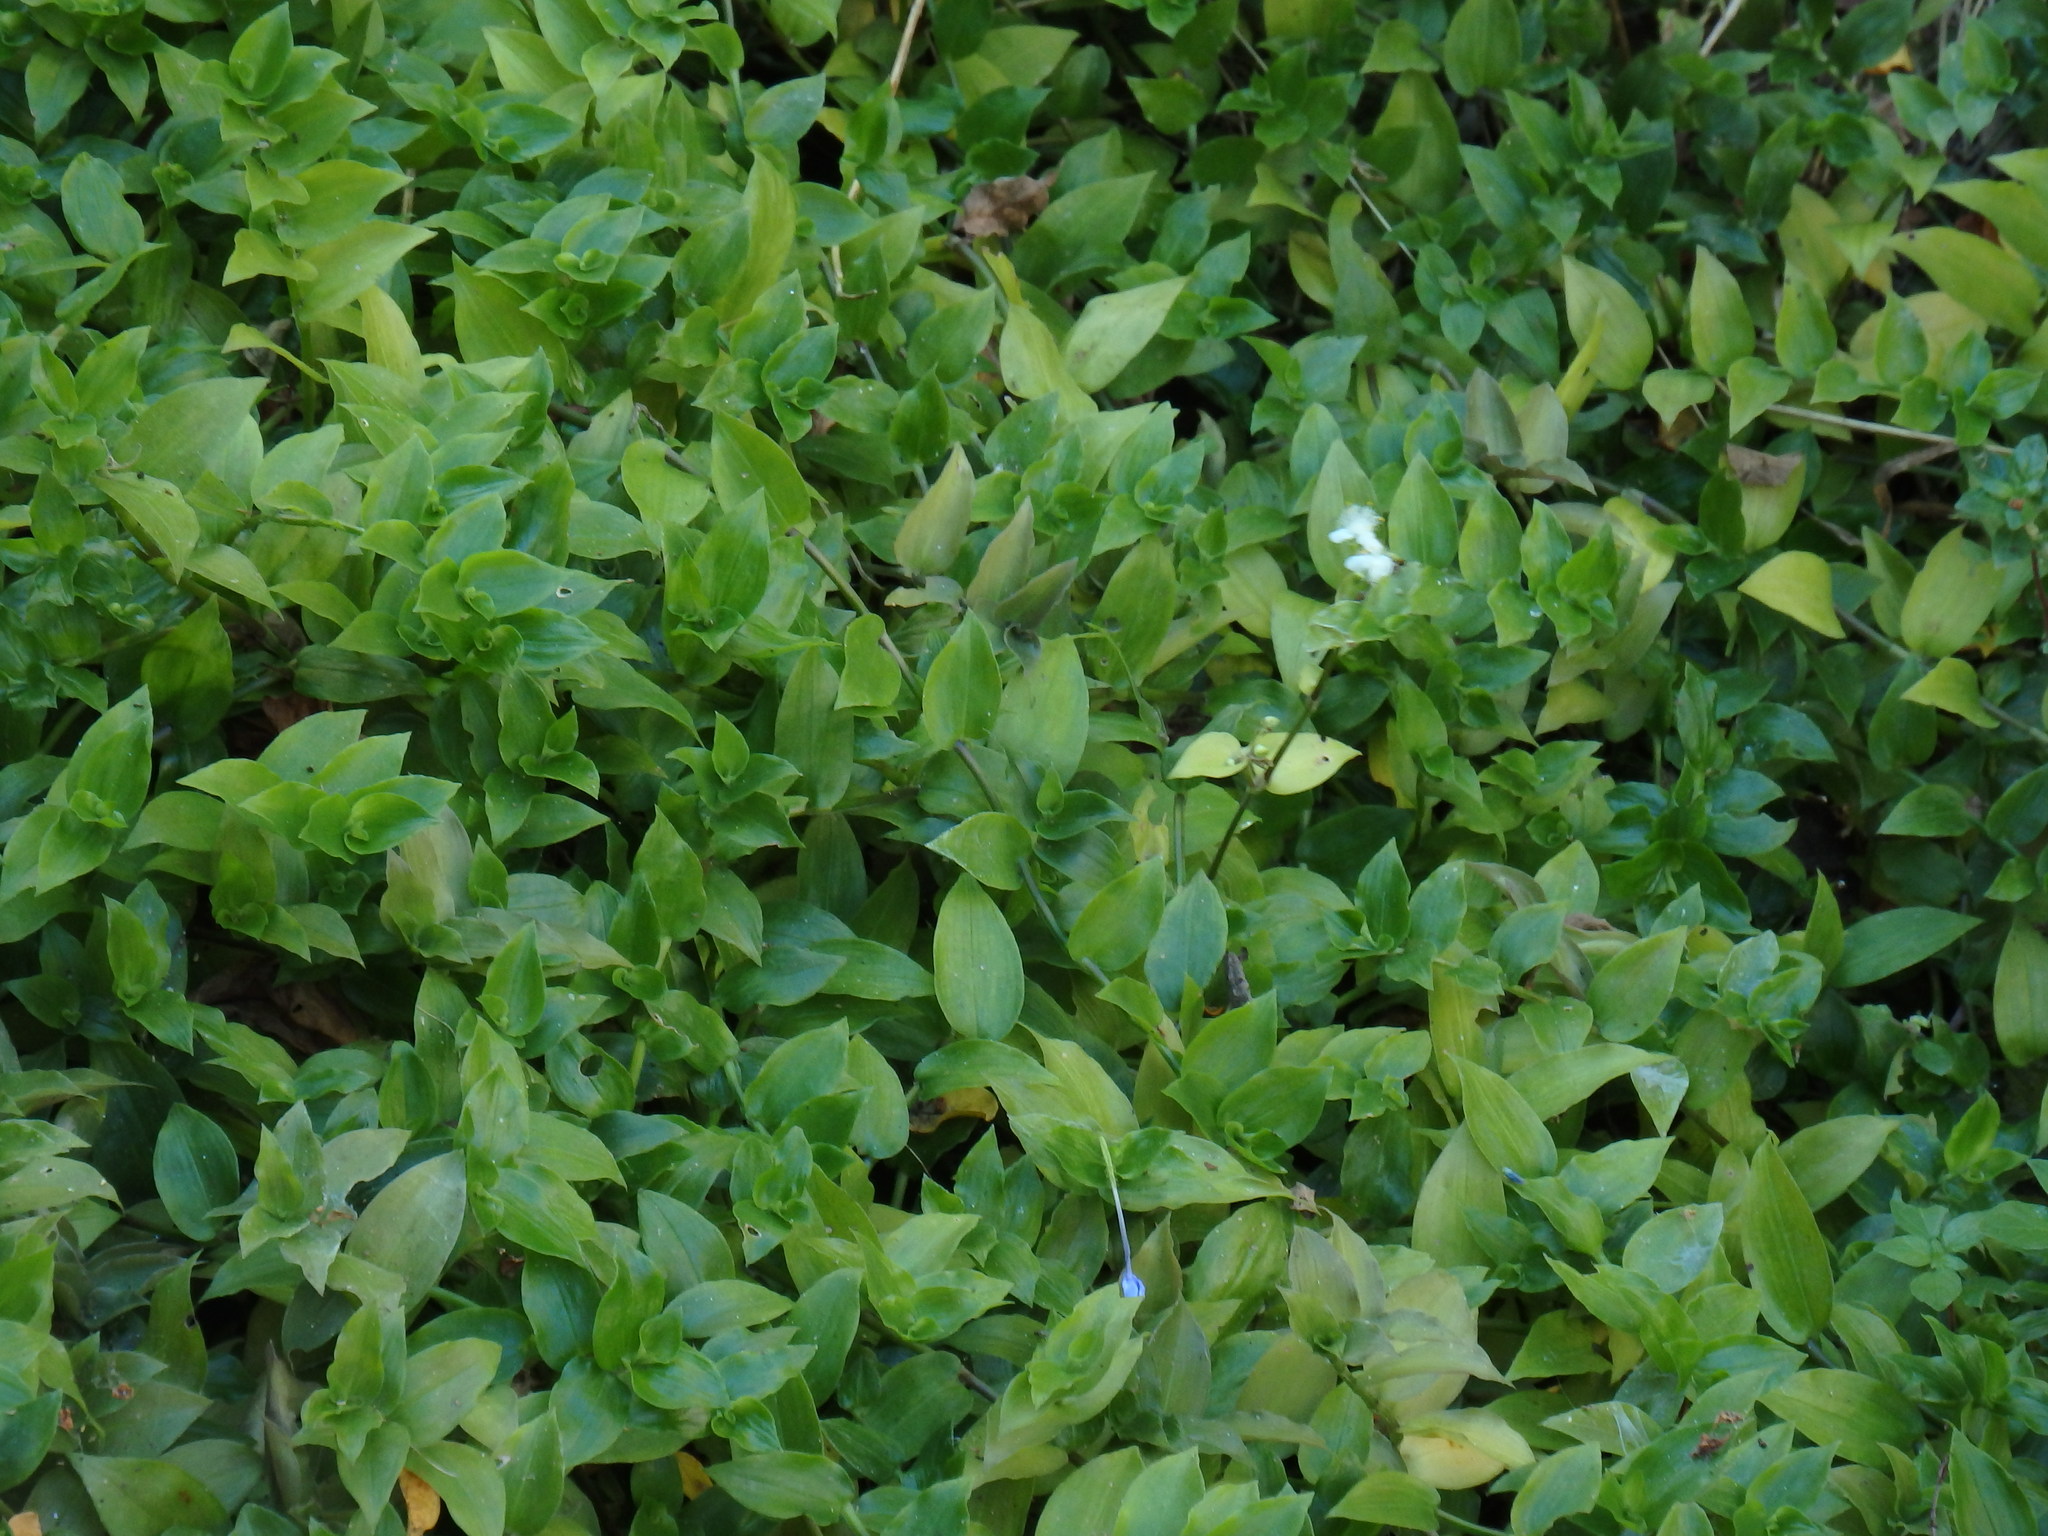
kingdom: Plantae
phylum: Tracheophyta
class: Liliopsida
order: Commelinales
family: Commelinaceae
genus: Tradescantia
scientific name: Tradescantia fluminensis
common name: Wandering-jew
